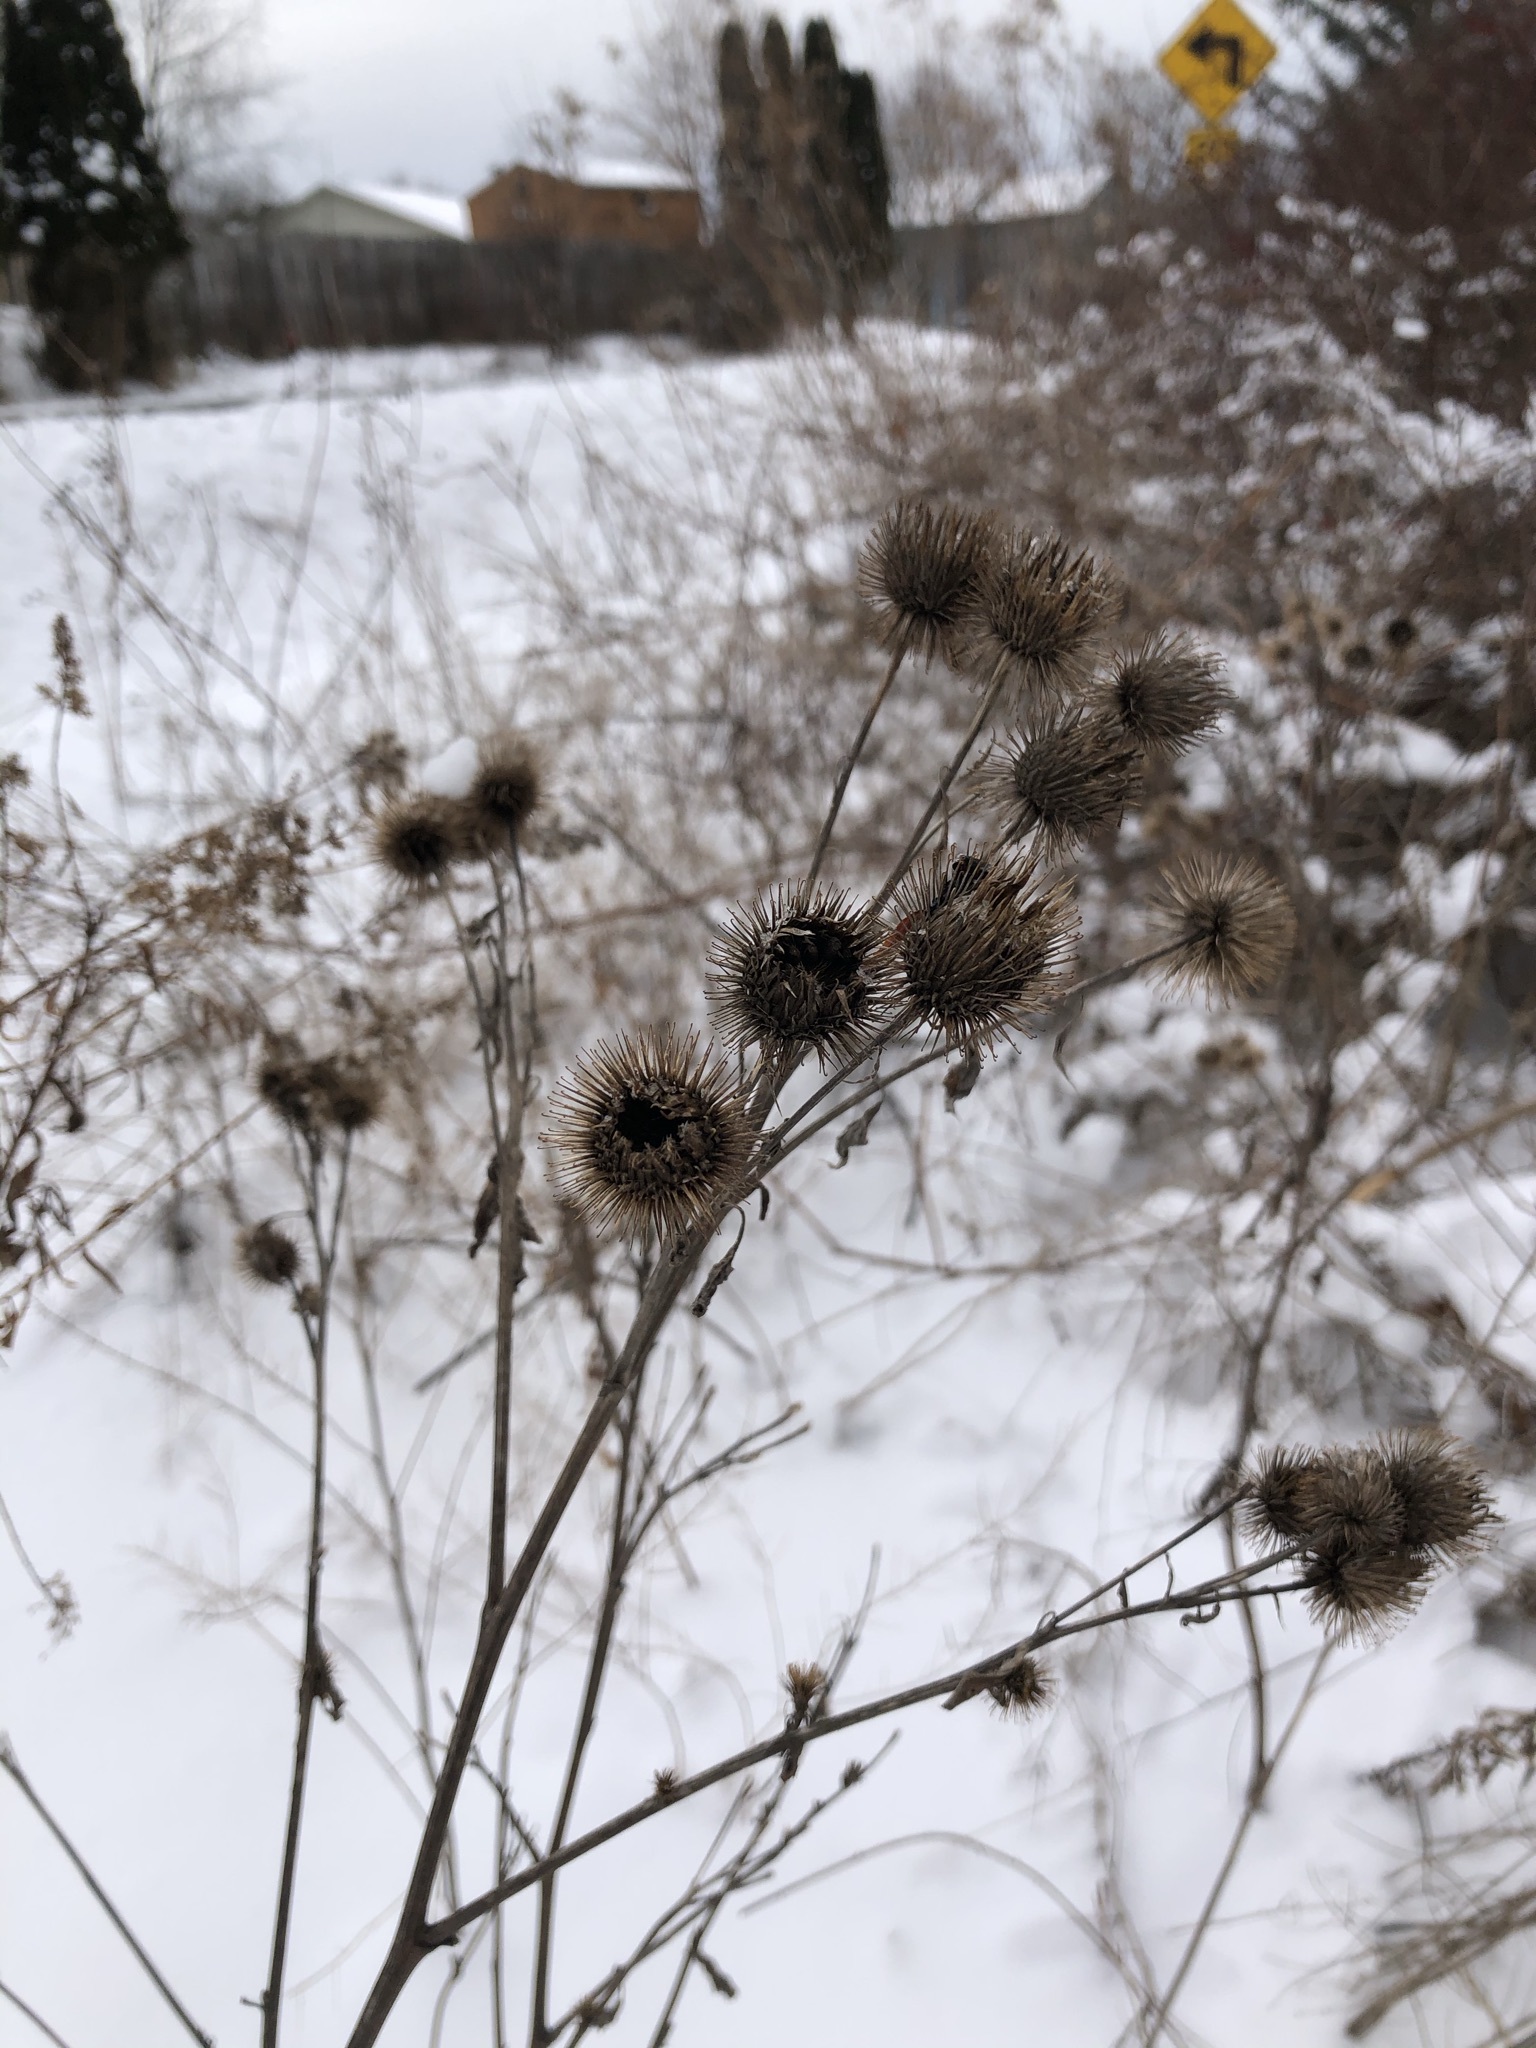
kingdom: Plantae
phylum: Tracheophyta
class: Magnoliopsida
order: Asterales
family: Asteraceae
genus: Arctium
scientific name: Arctium lappa
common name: Greater burdock
